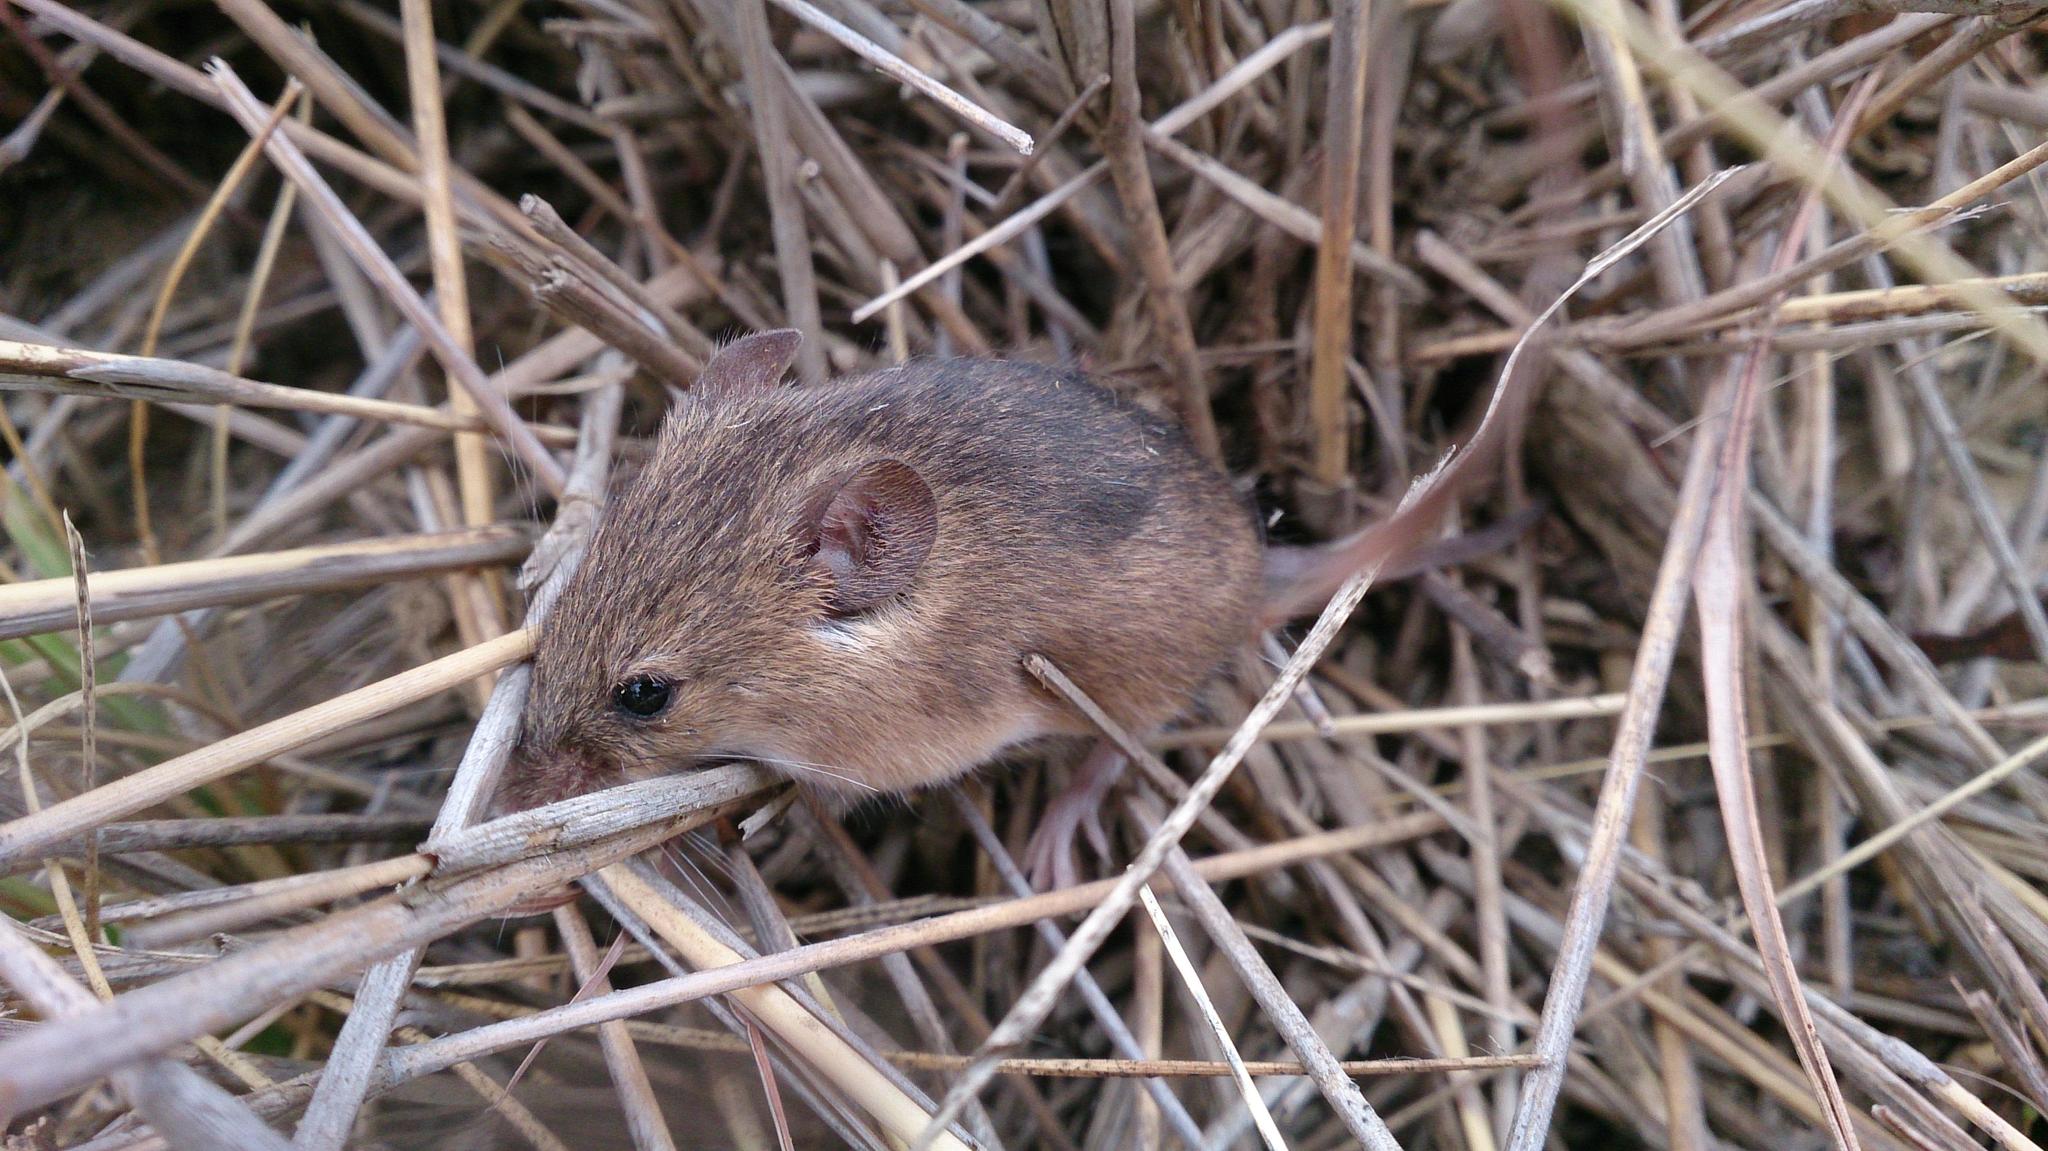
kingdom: Animalia
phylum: Chordata
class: Mammalia
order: Rodentia
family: Muridae
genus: Mus
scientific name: Mus minutoides
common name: Southern african pygmy mouse
